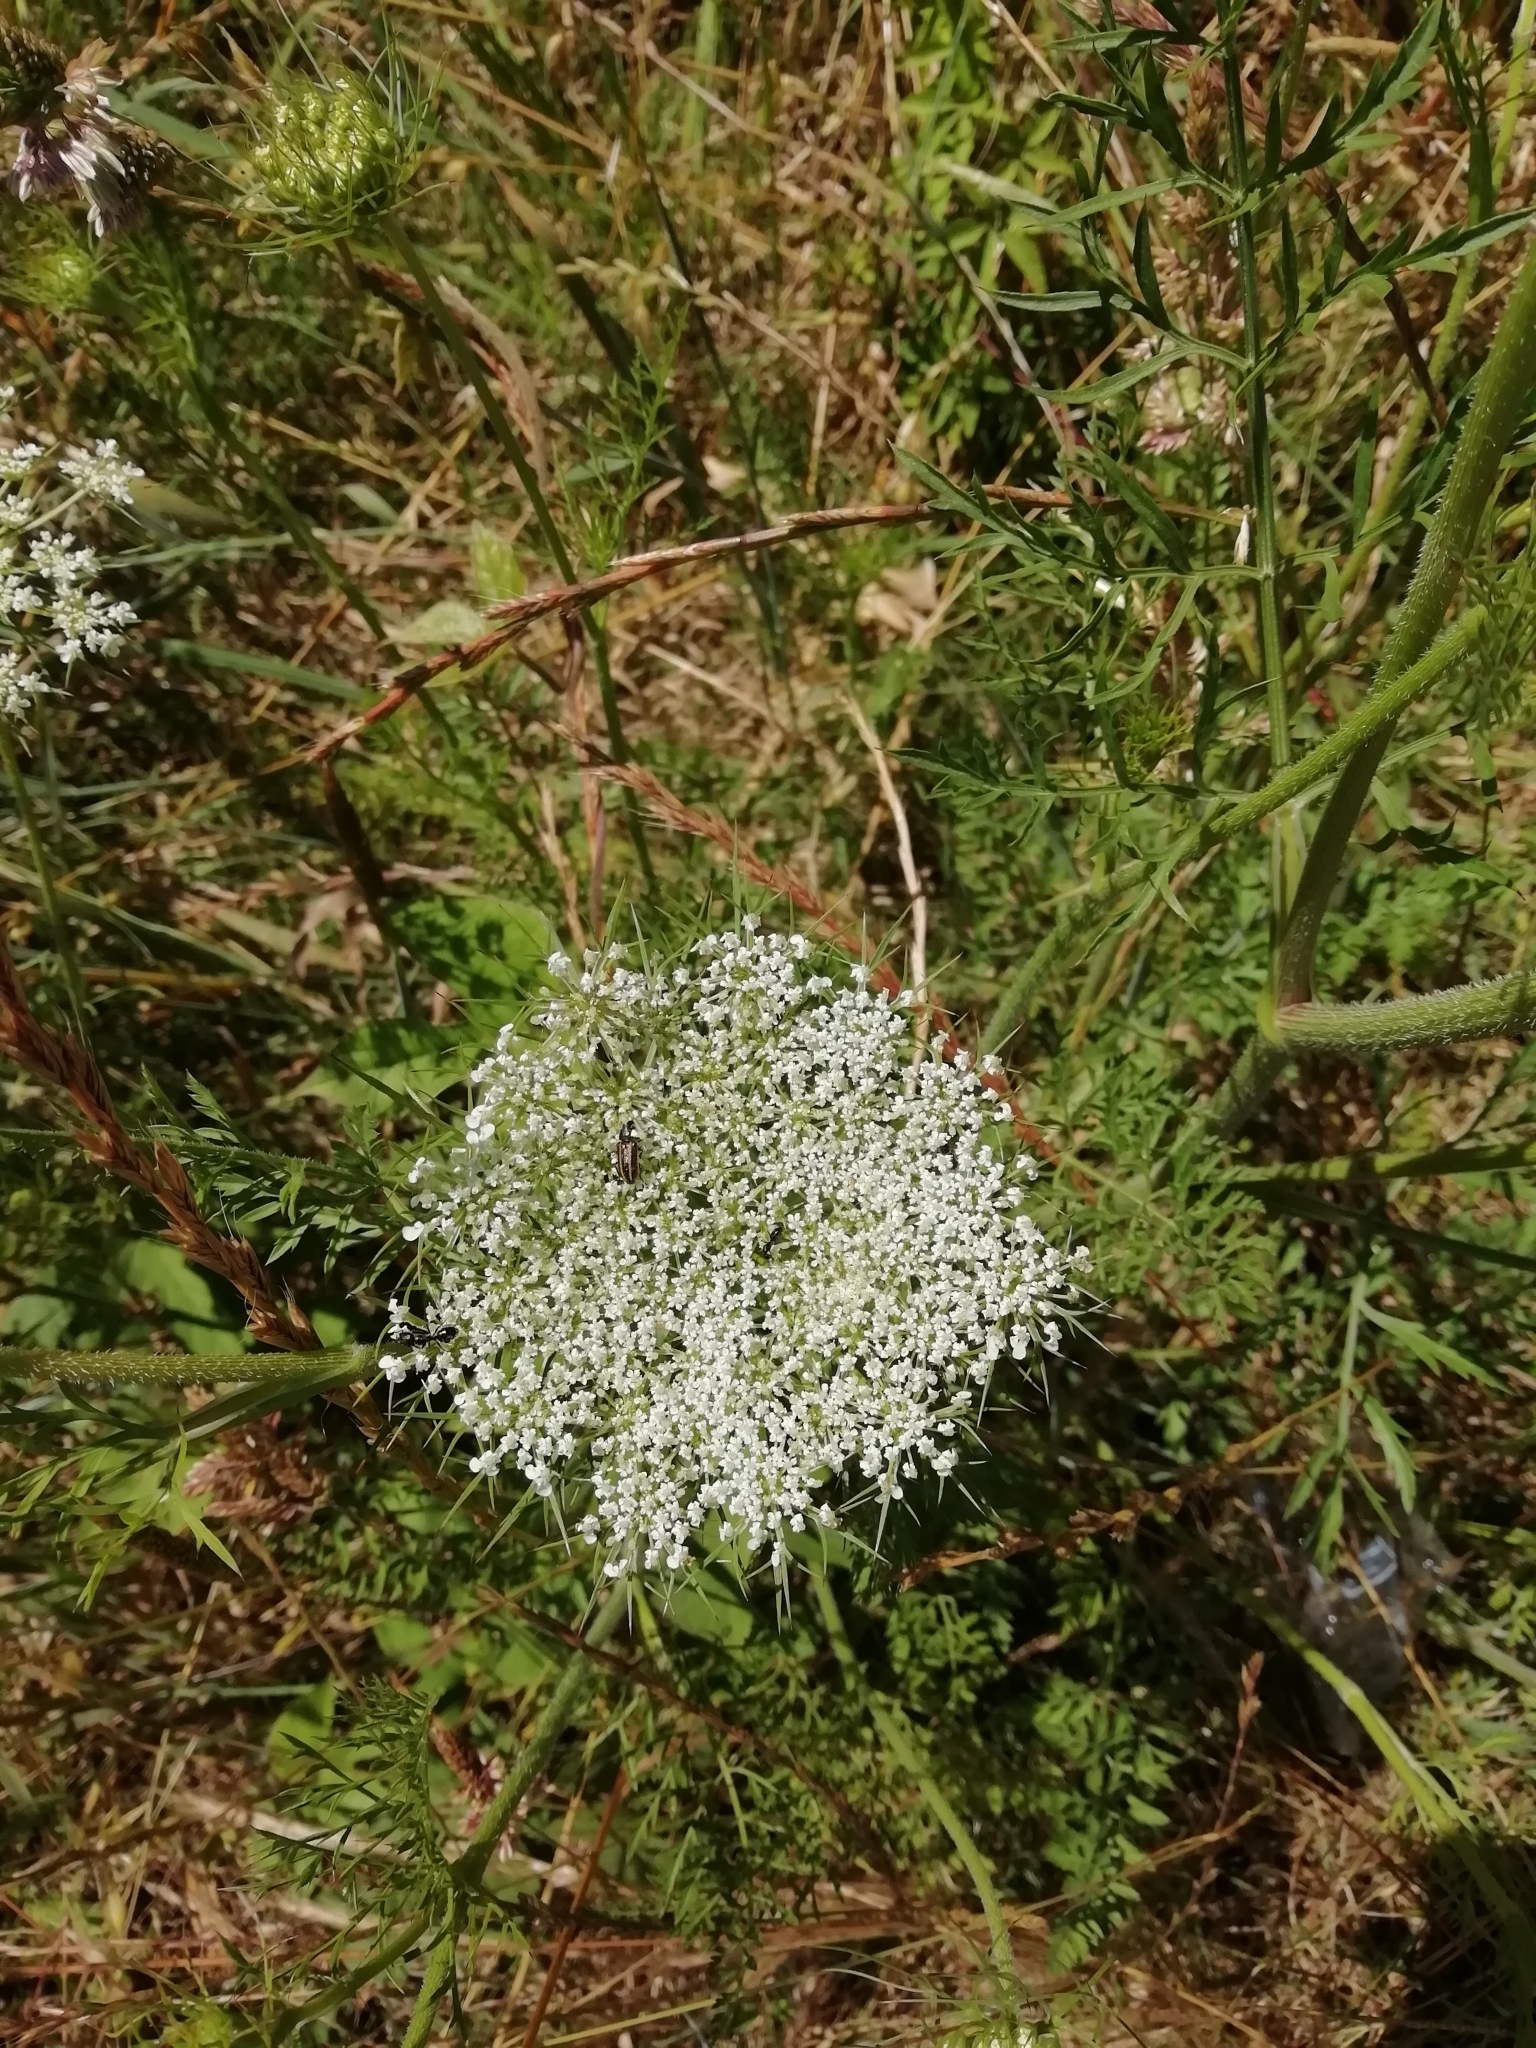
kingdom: Plantae
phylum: Tracheophyta
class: Magnoliopsida
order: Apiales
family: Apiaceae
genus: Daucus
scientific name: Daucus carota
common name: Wild carrot
